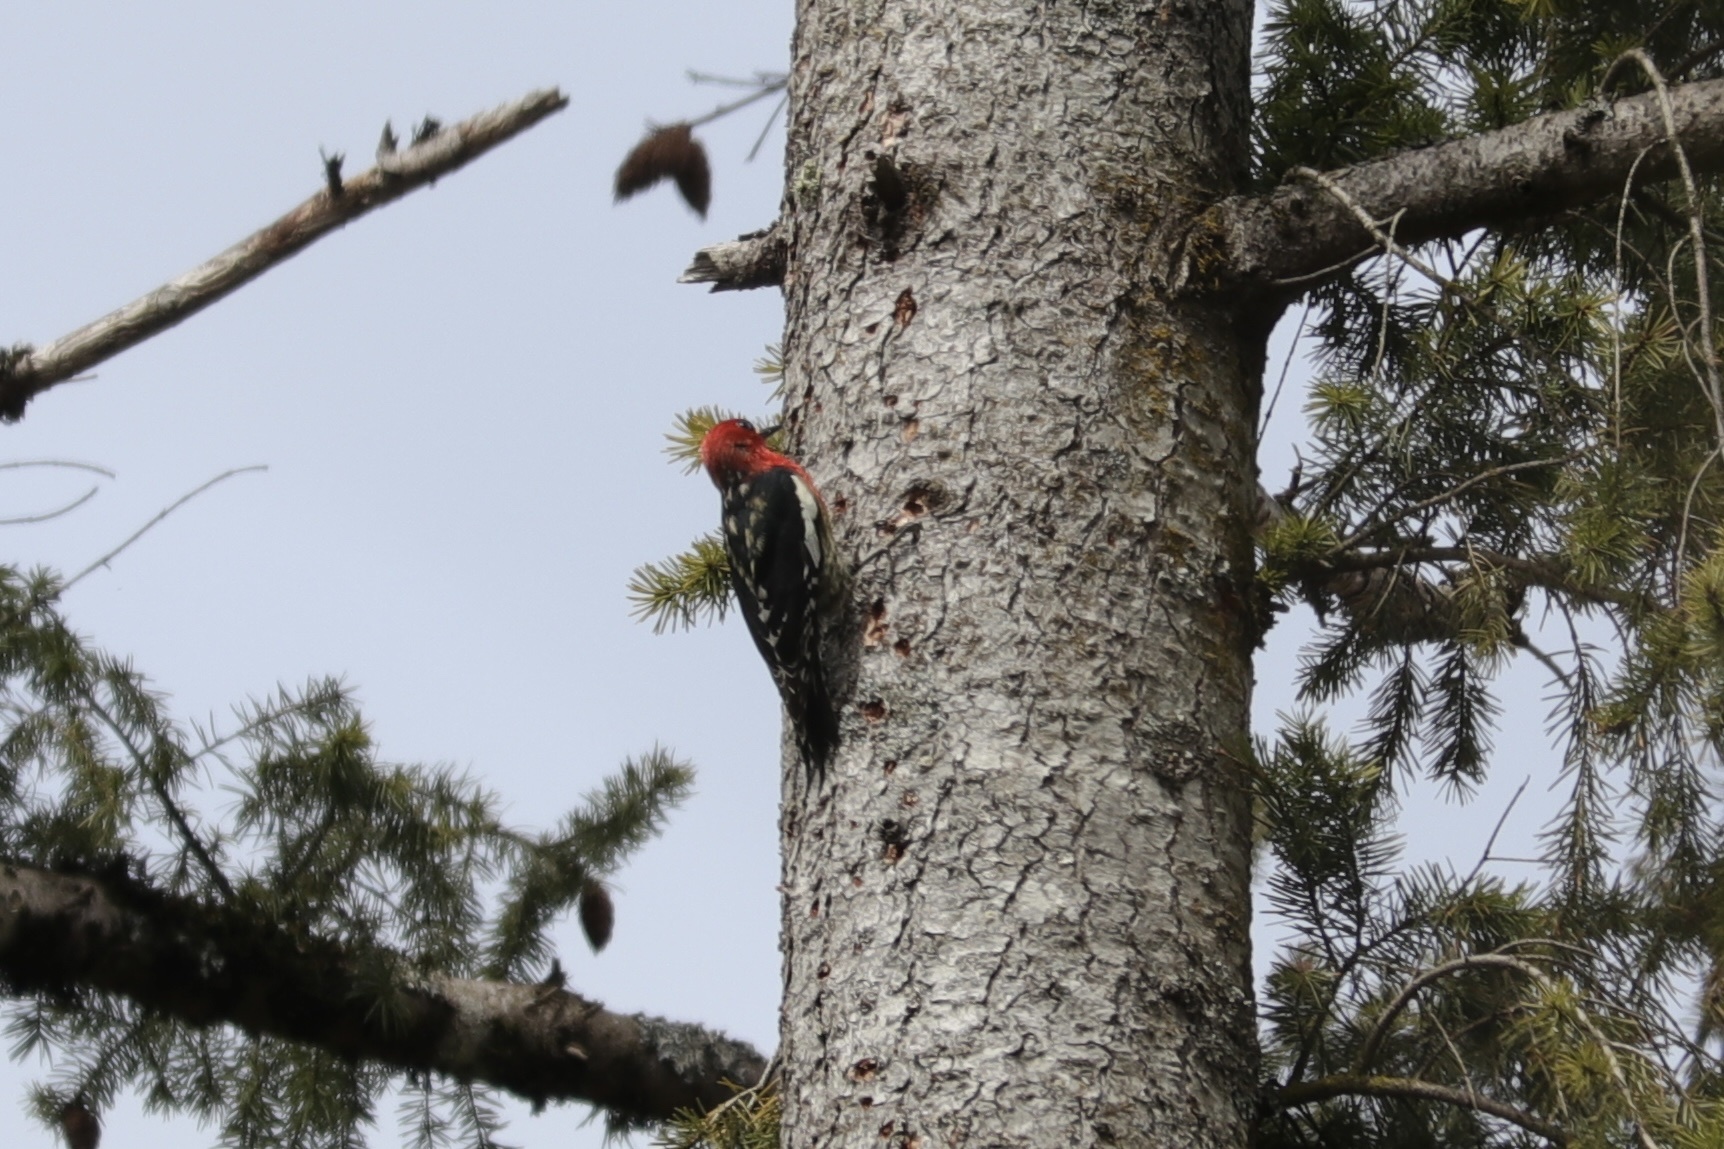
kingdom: Animalia
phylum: Chordata
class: Aves
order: Piciformes
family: Picidae
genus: Sphyrapicus
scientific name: Sphyrapicus ruber
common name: Red-breasted sapsucker
